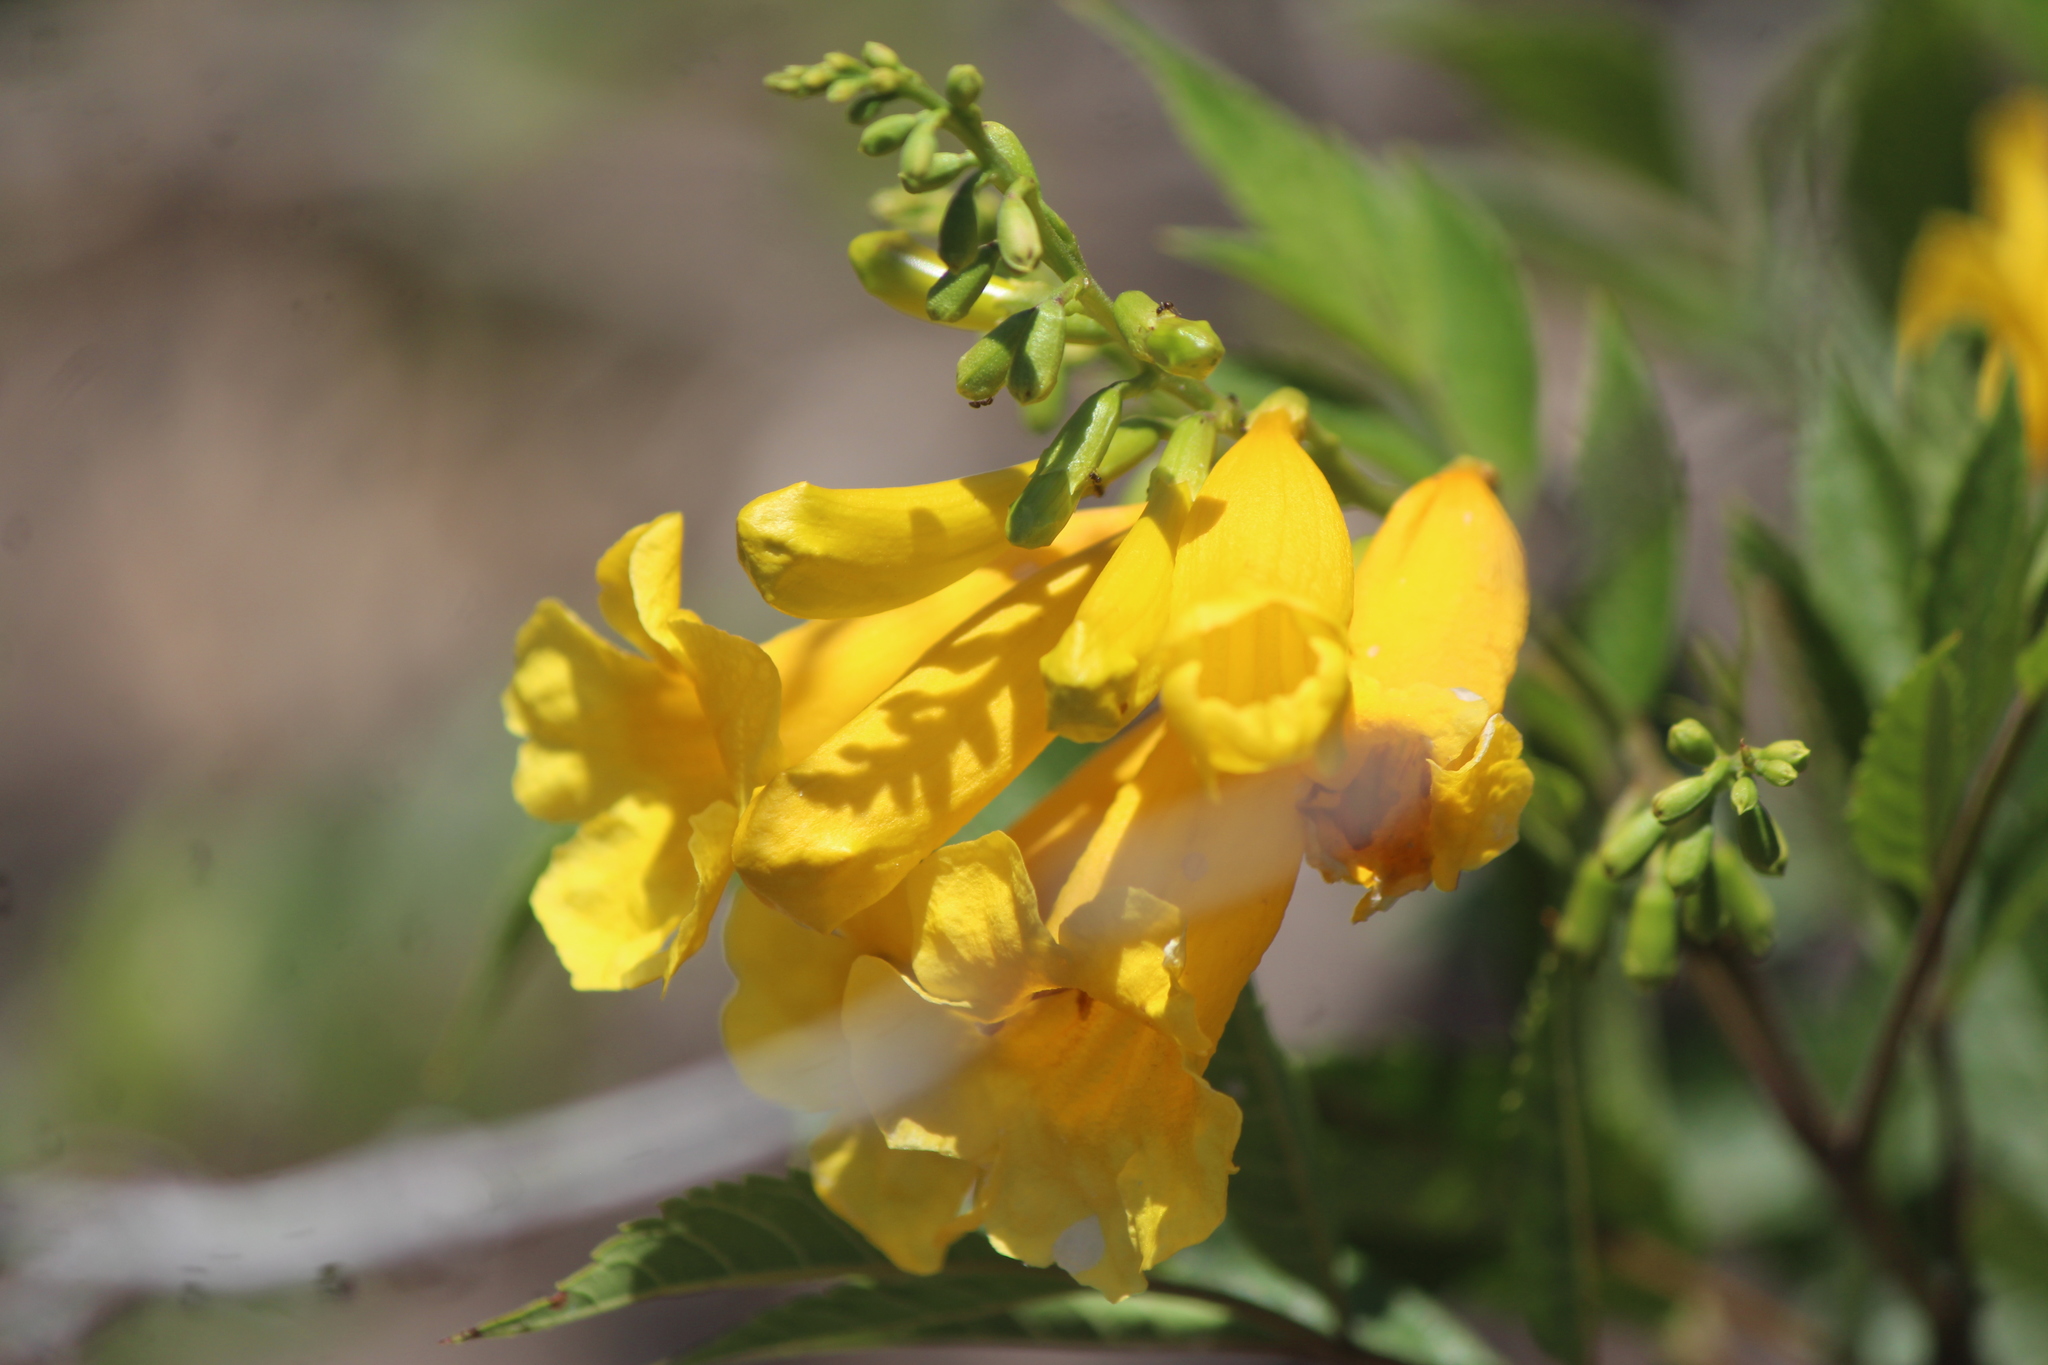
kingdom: Plantae
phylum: Tracheophyta
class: Magnoliopsida
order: Lamiales
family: Bignoniaceae
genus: Tecoma
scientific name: Tecoma stans
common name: Yellow trumpetbush
